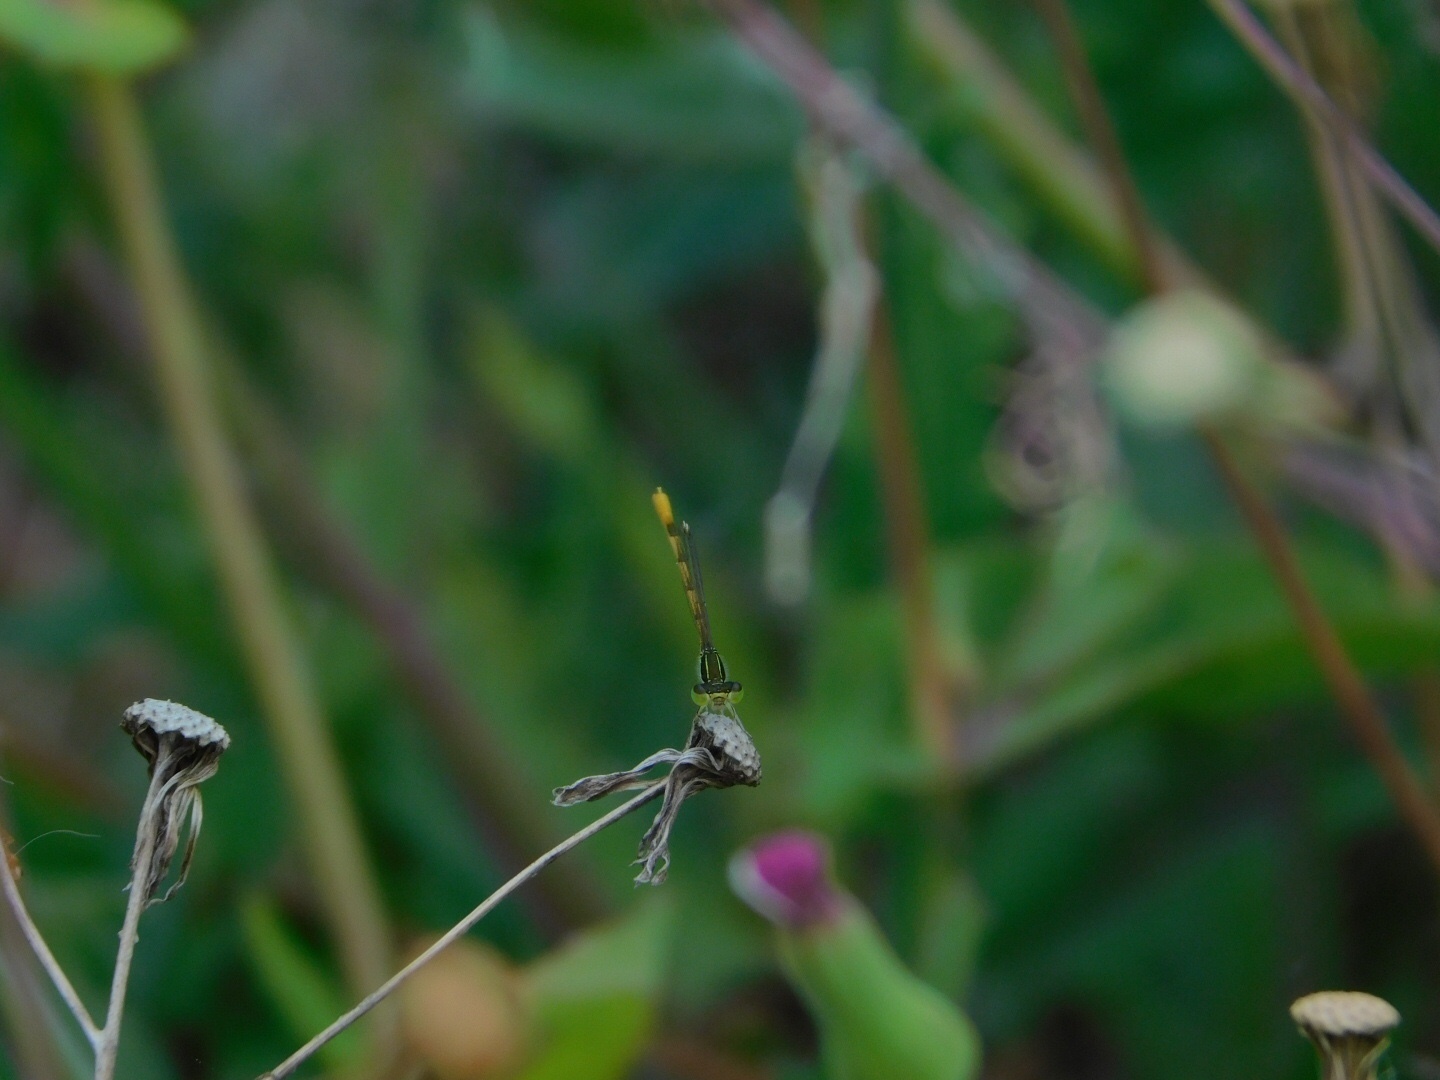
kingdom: Animalia
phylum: Arthropoda
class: Insecta
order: Odonata
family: Coenagrionidae
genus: Ischnura
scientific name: Ischnura hastata
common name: Citrine forktail
